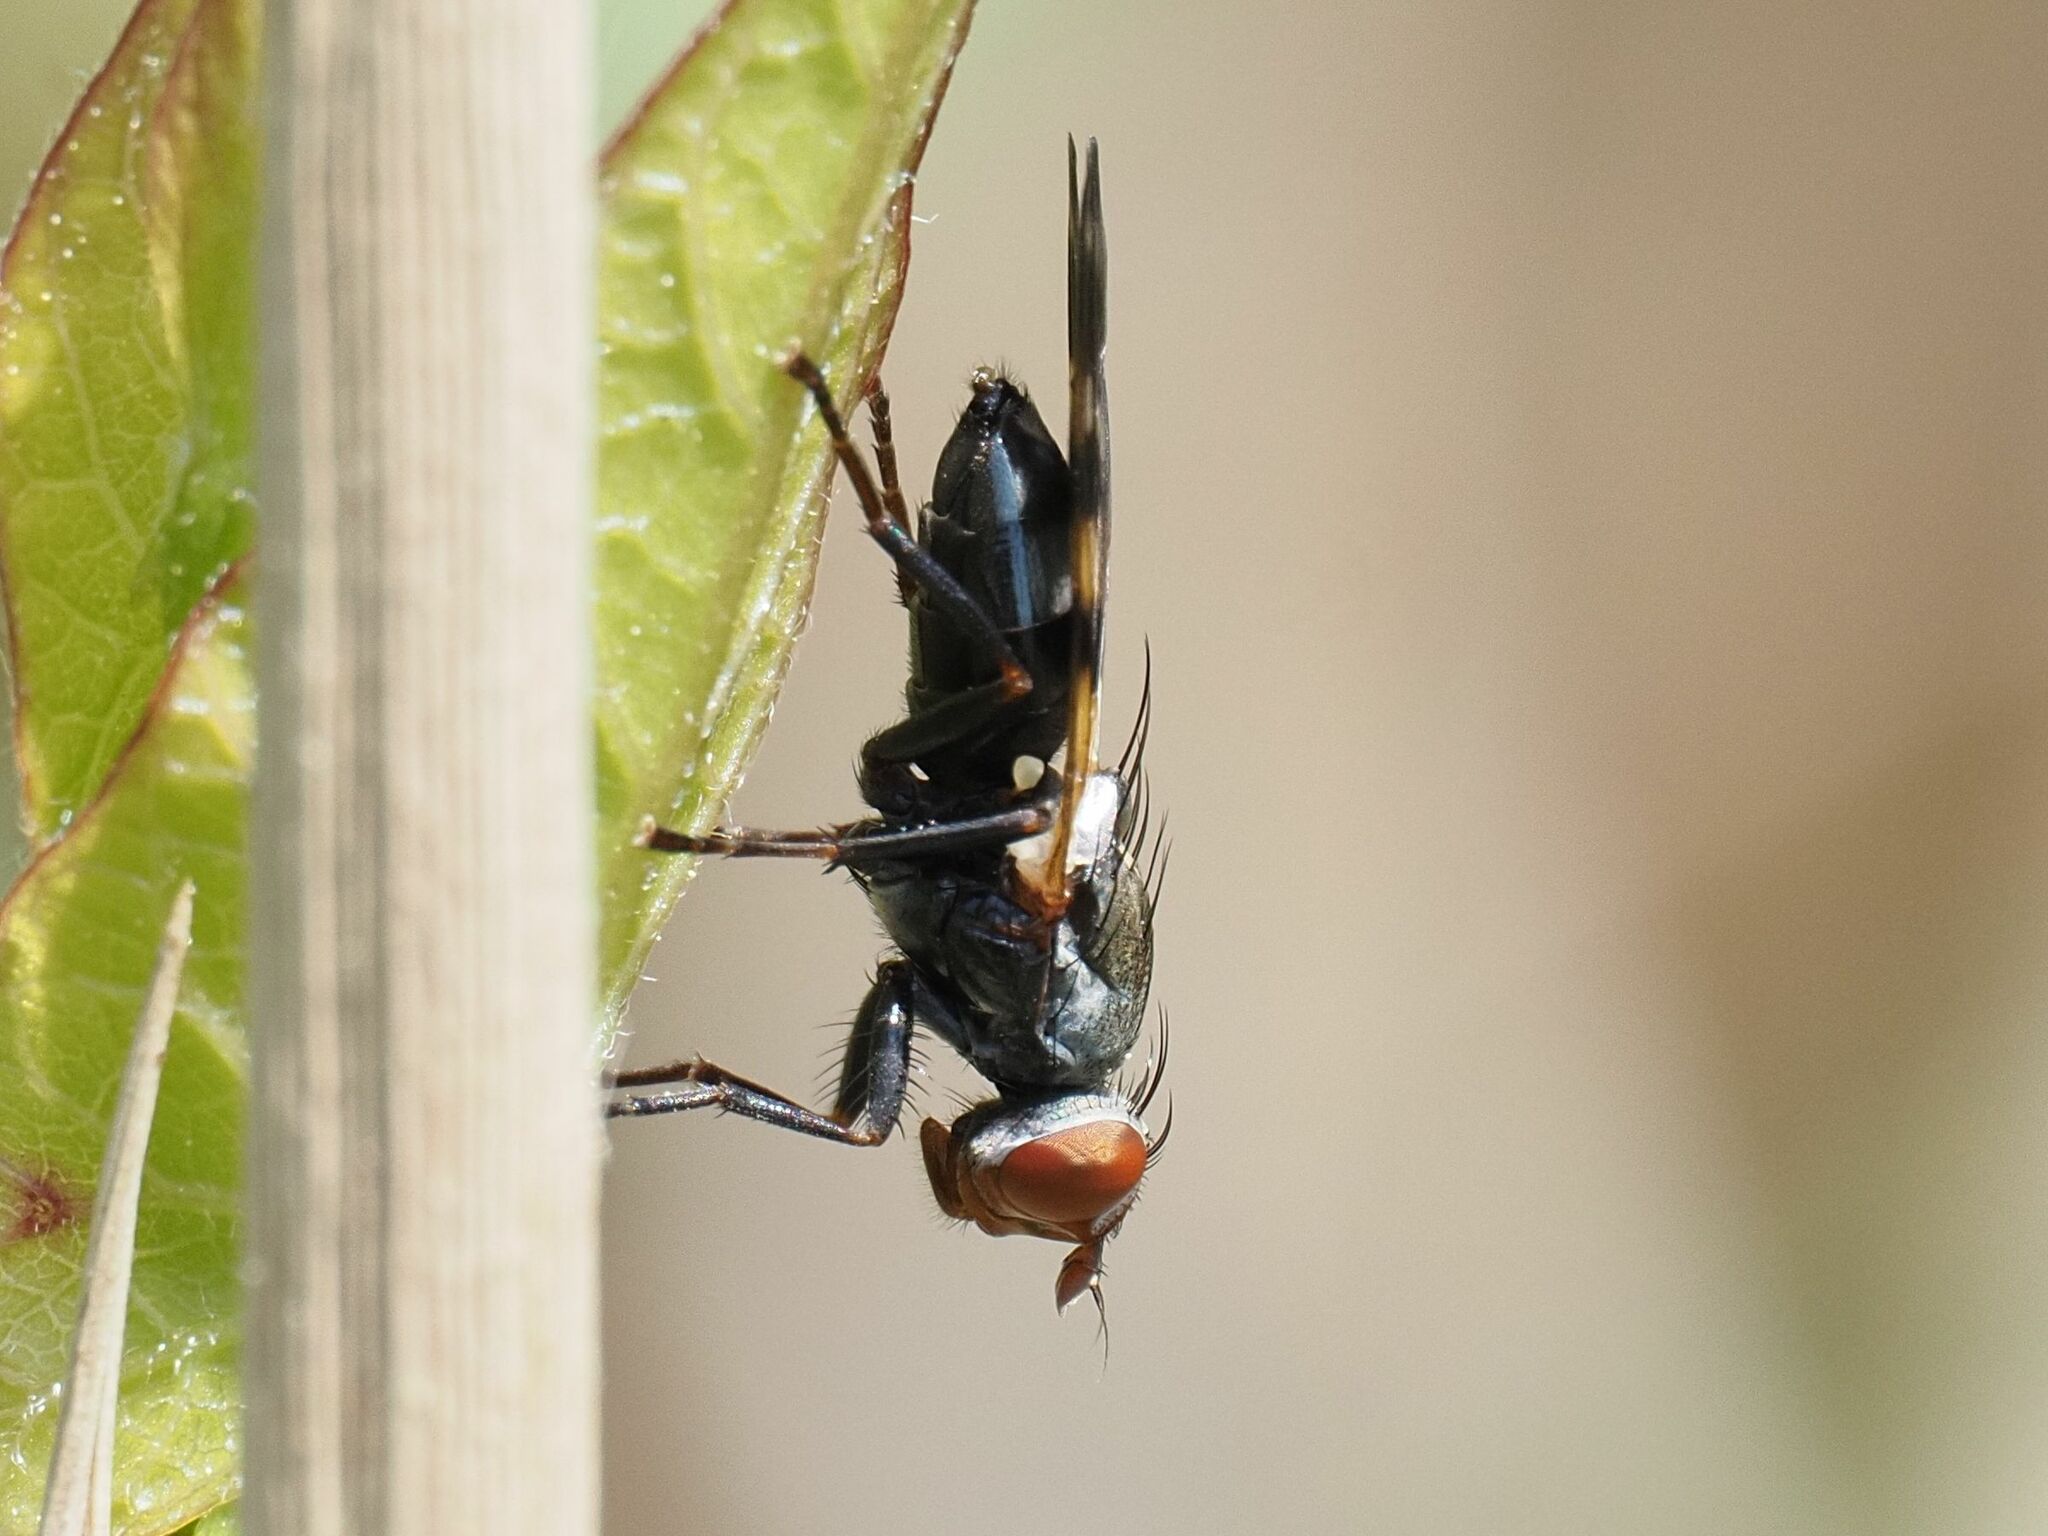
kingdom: Animalia
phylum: Arthropoda
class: Insecta
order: Diptera
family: Ulidiidae
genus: Ceroxys
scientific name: Ceroxys urticae
